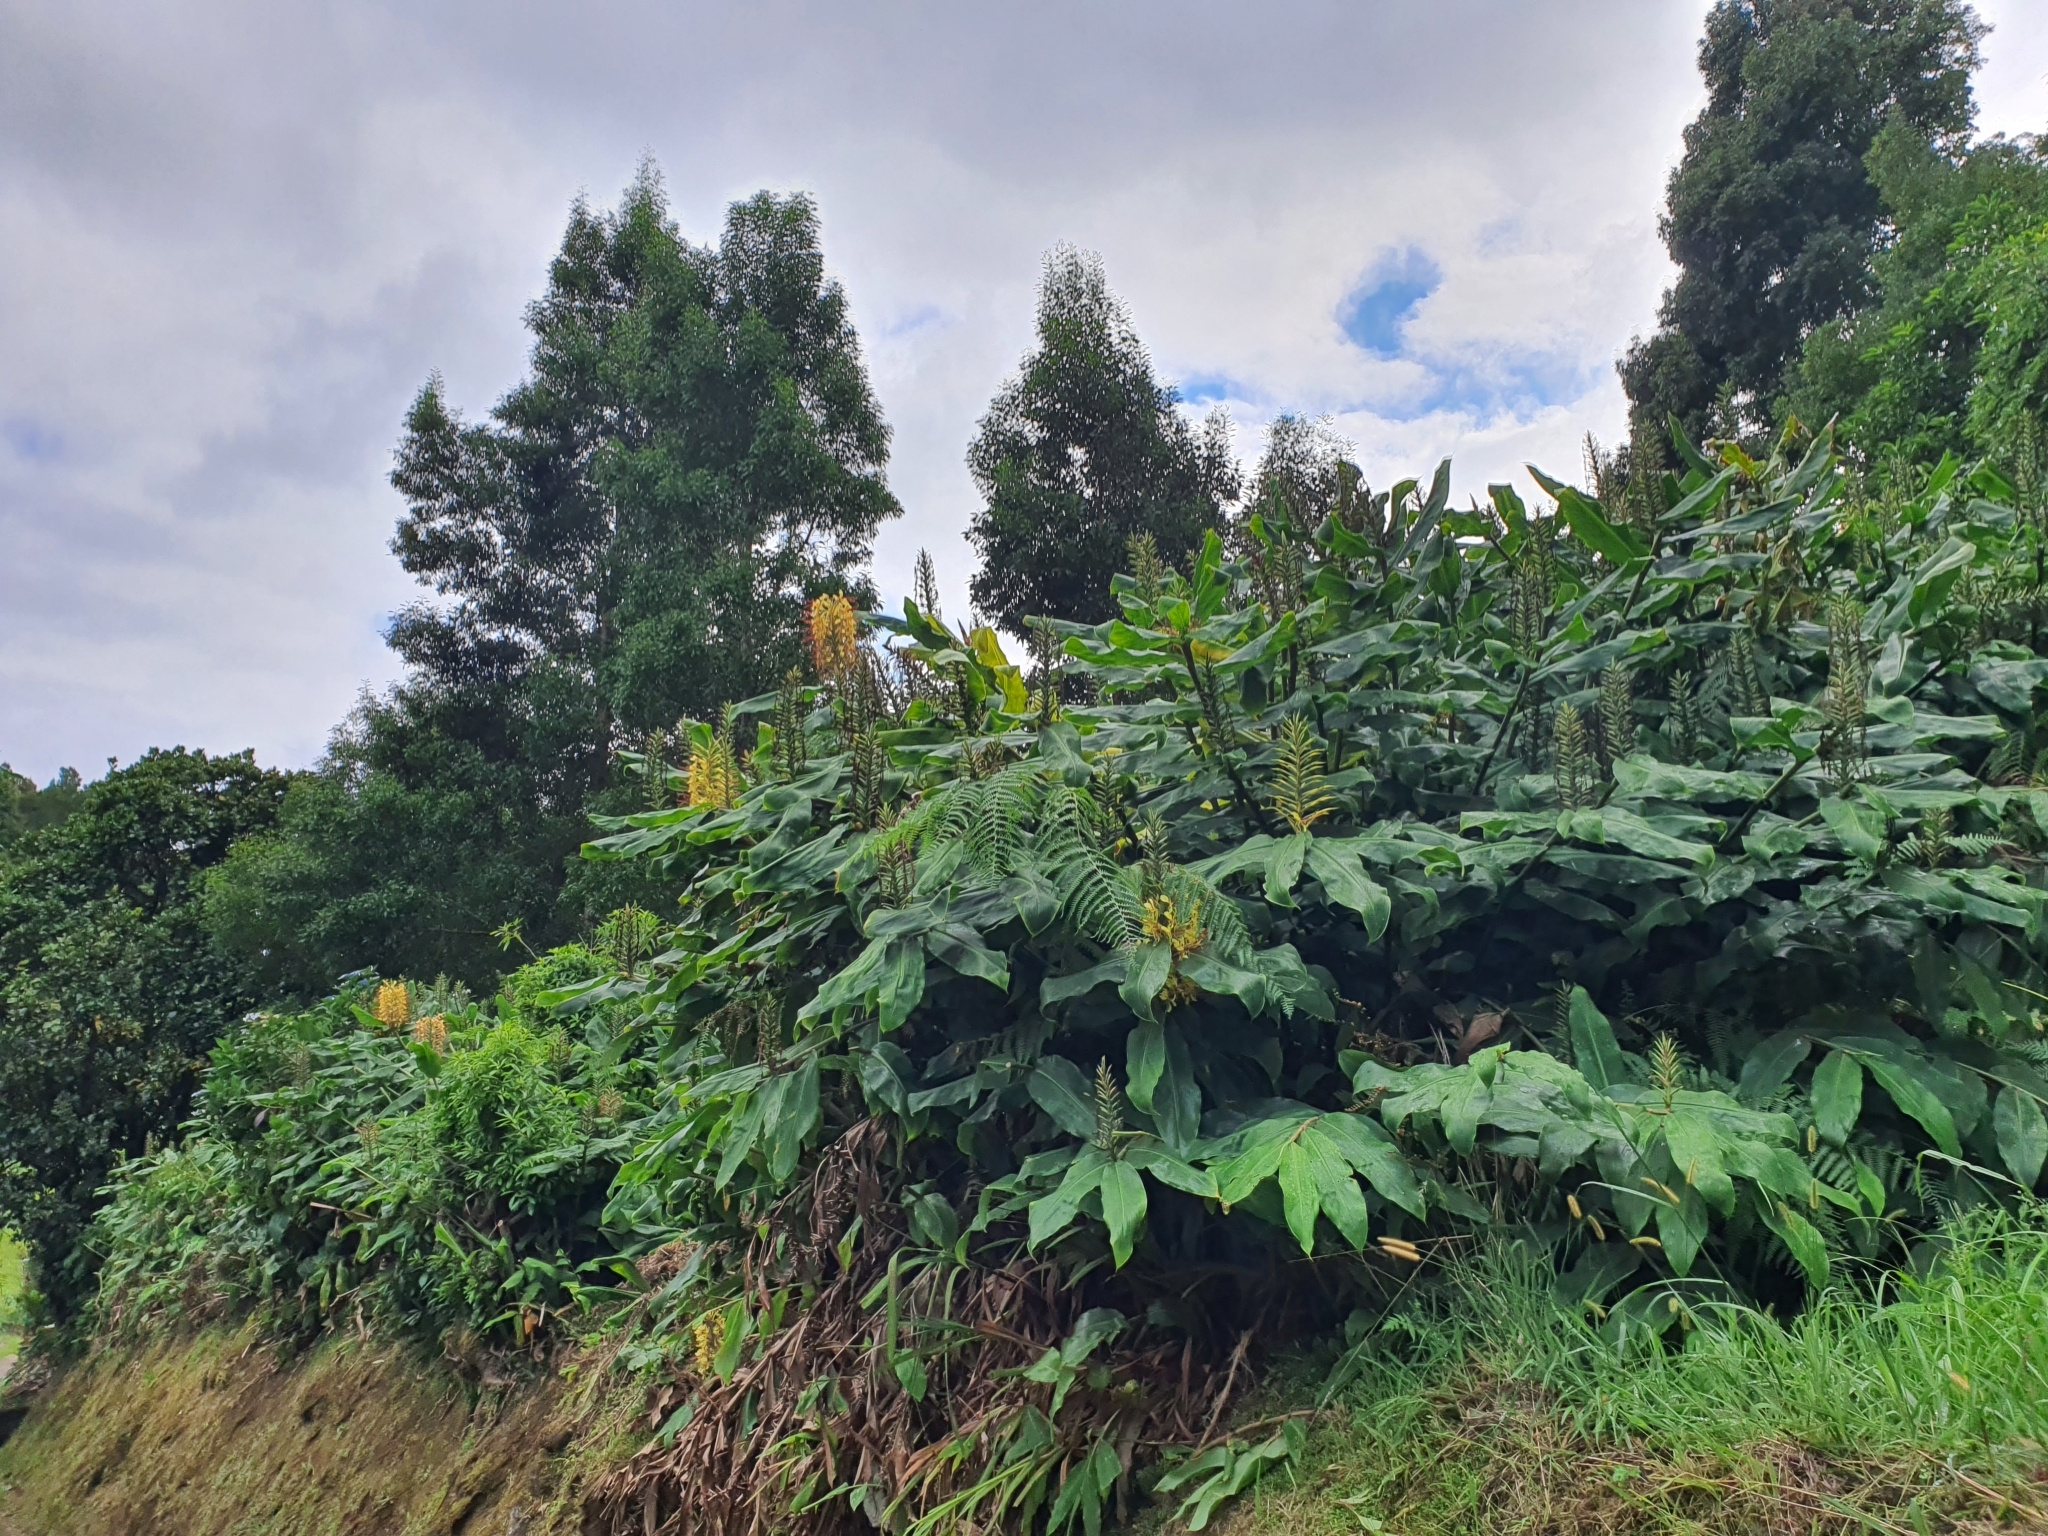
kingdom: Plantae
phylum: Tracheophyta
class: Liliopsida
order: Zingiberales
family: Zingiberaceae
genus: Hedychium
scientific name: Hedychium gardnerianum
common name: Himalayan ginger
